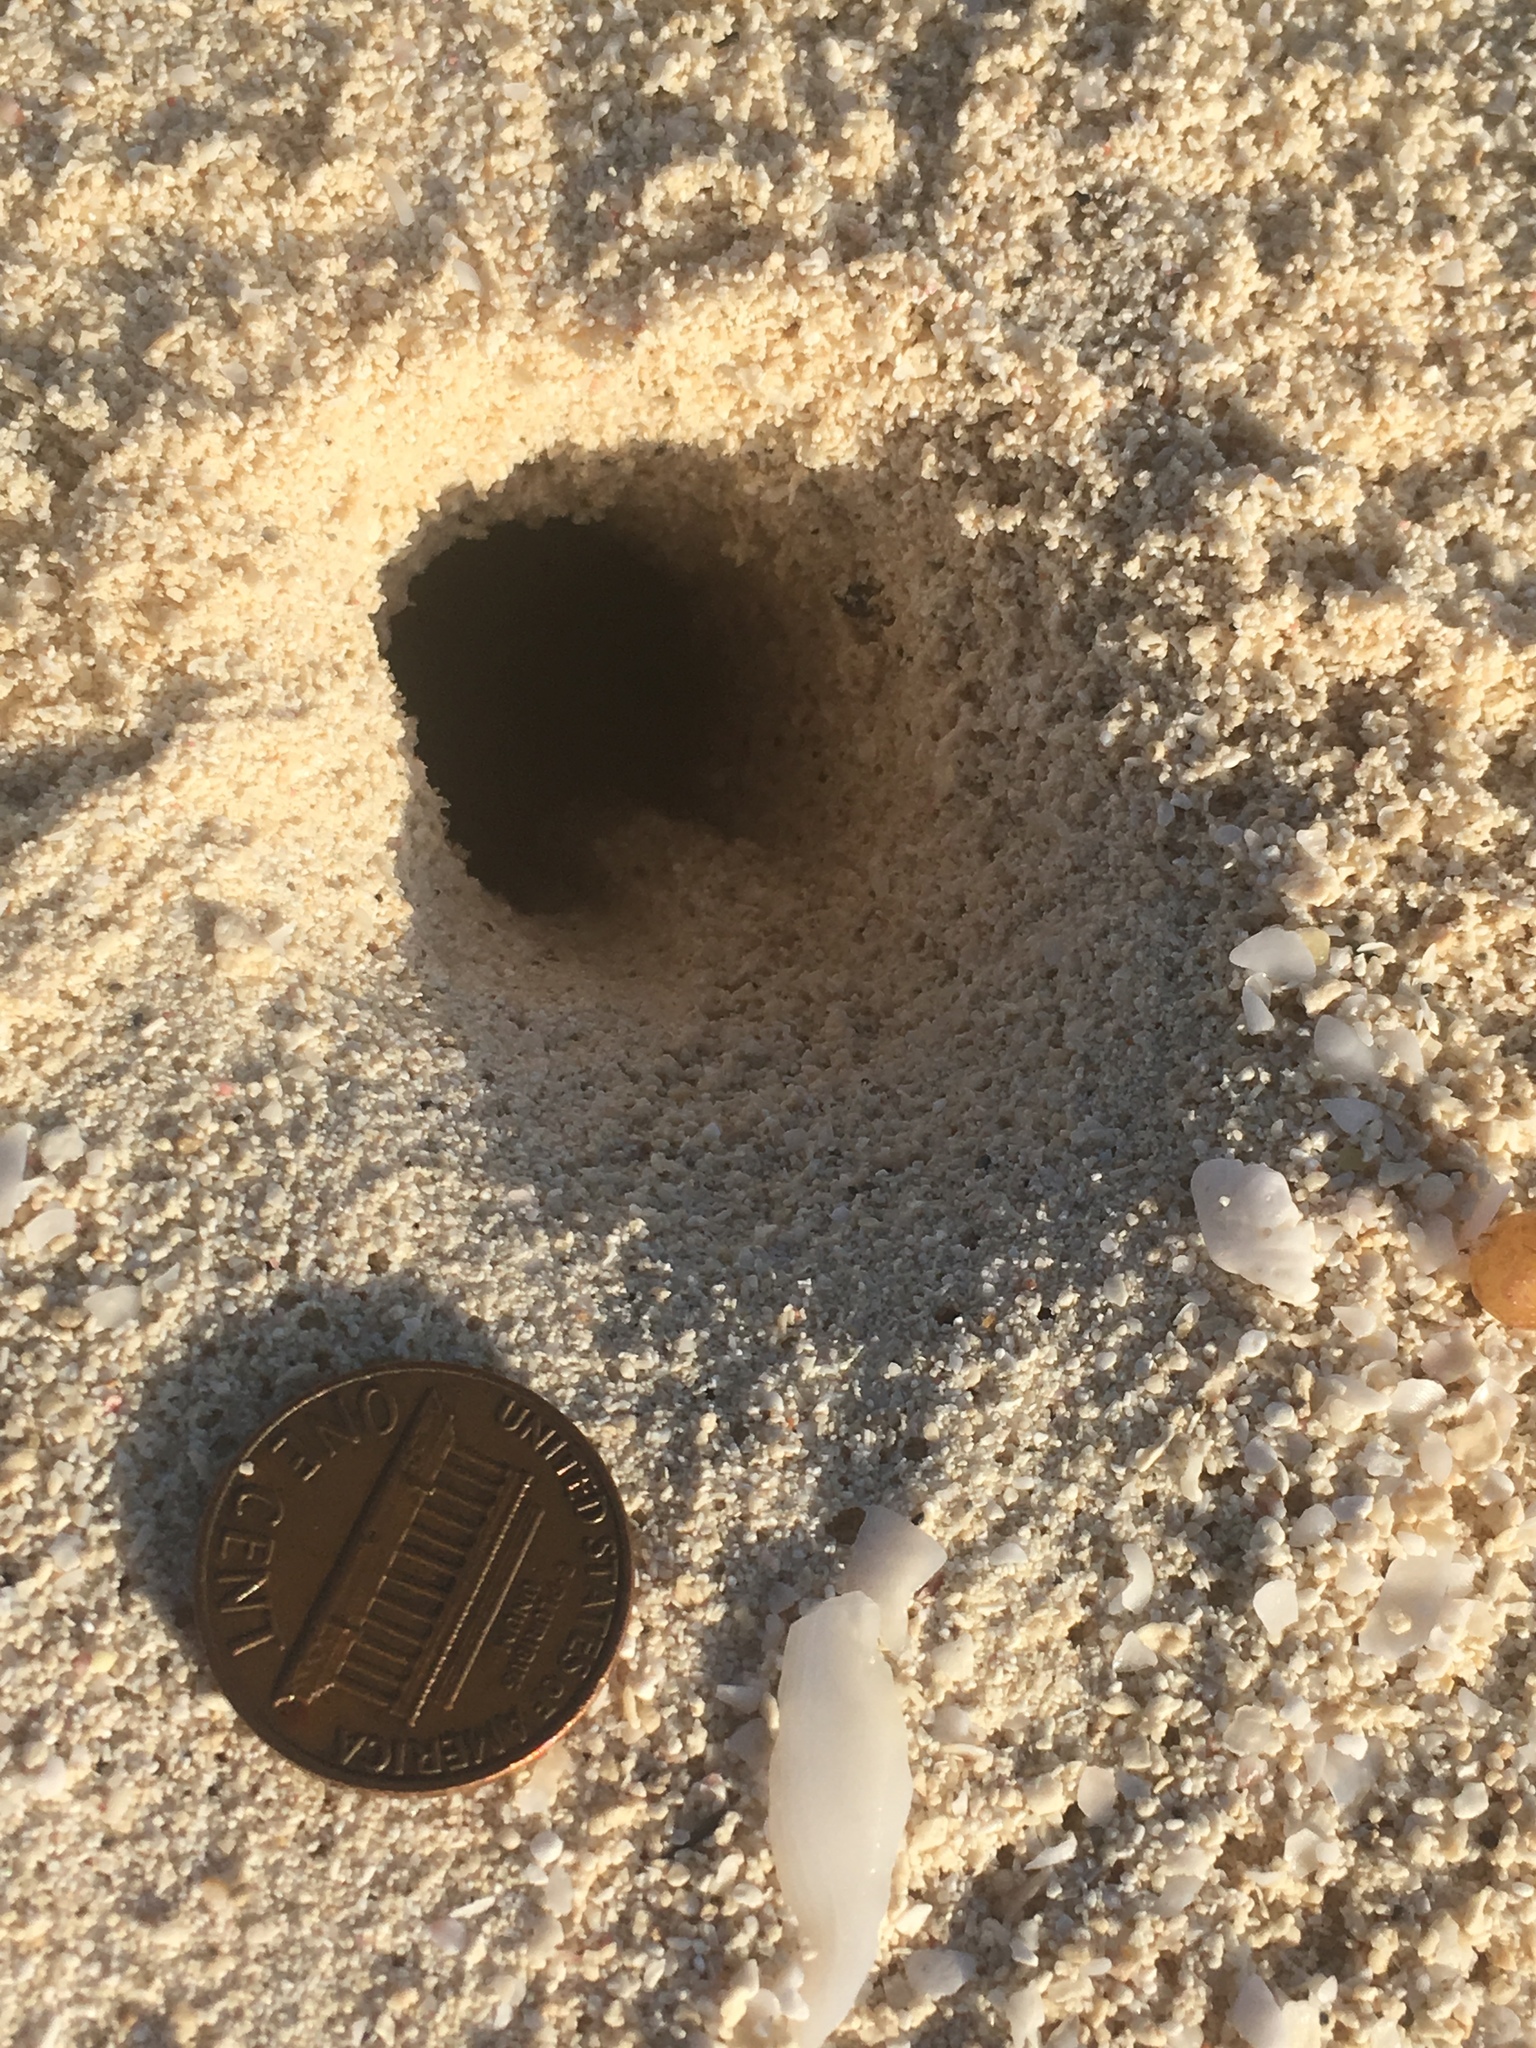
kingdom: Animalia
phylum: Arthropoda
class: Malacostraca
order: Decapoda
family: Ocypodidae
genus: Ocypode
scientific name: Ocypode quadrata
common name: Ghost crab
